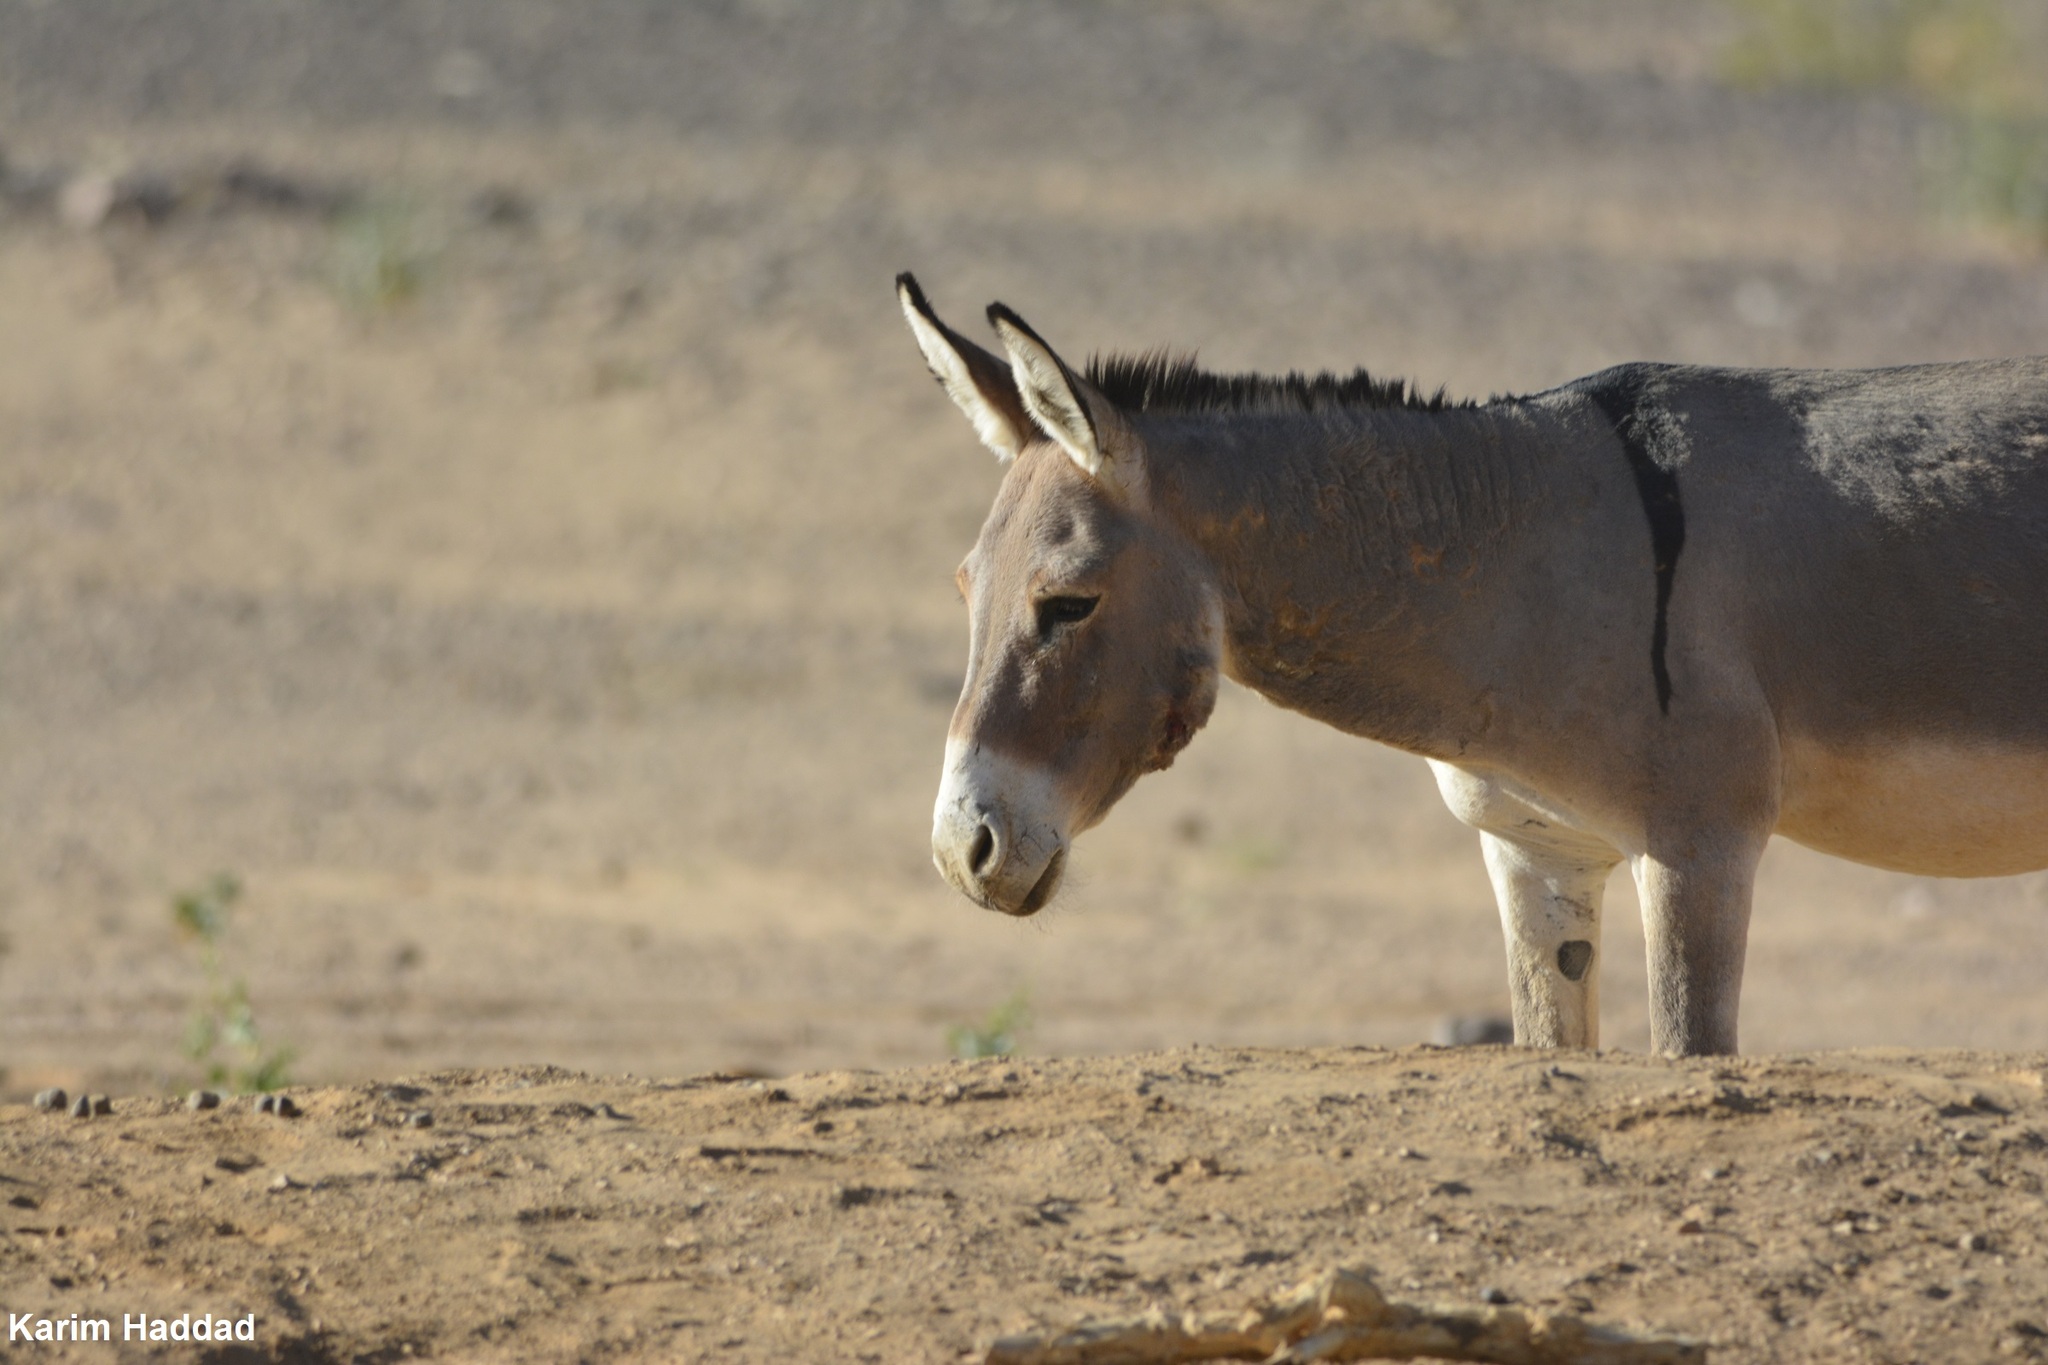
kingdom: Animalia
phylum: Chordata
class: Mammalia
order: Perissodactyla
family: Equidae
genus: Equus
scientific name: Equus asinus
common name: Ass
